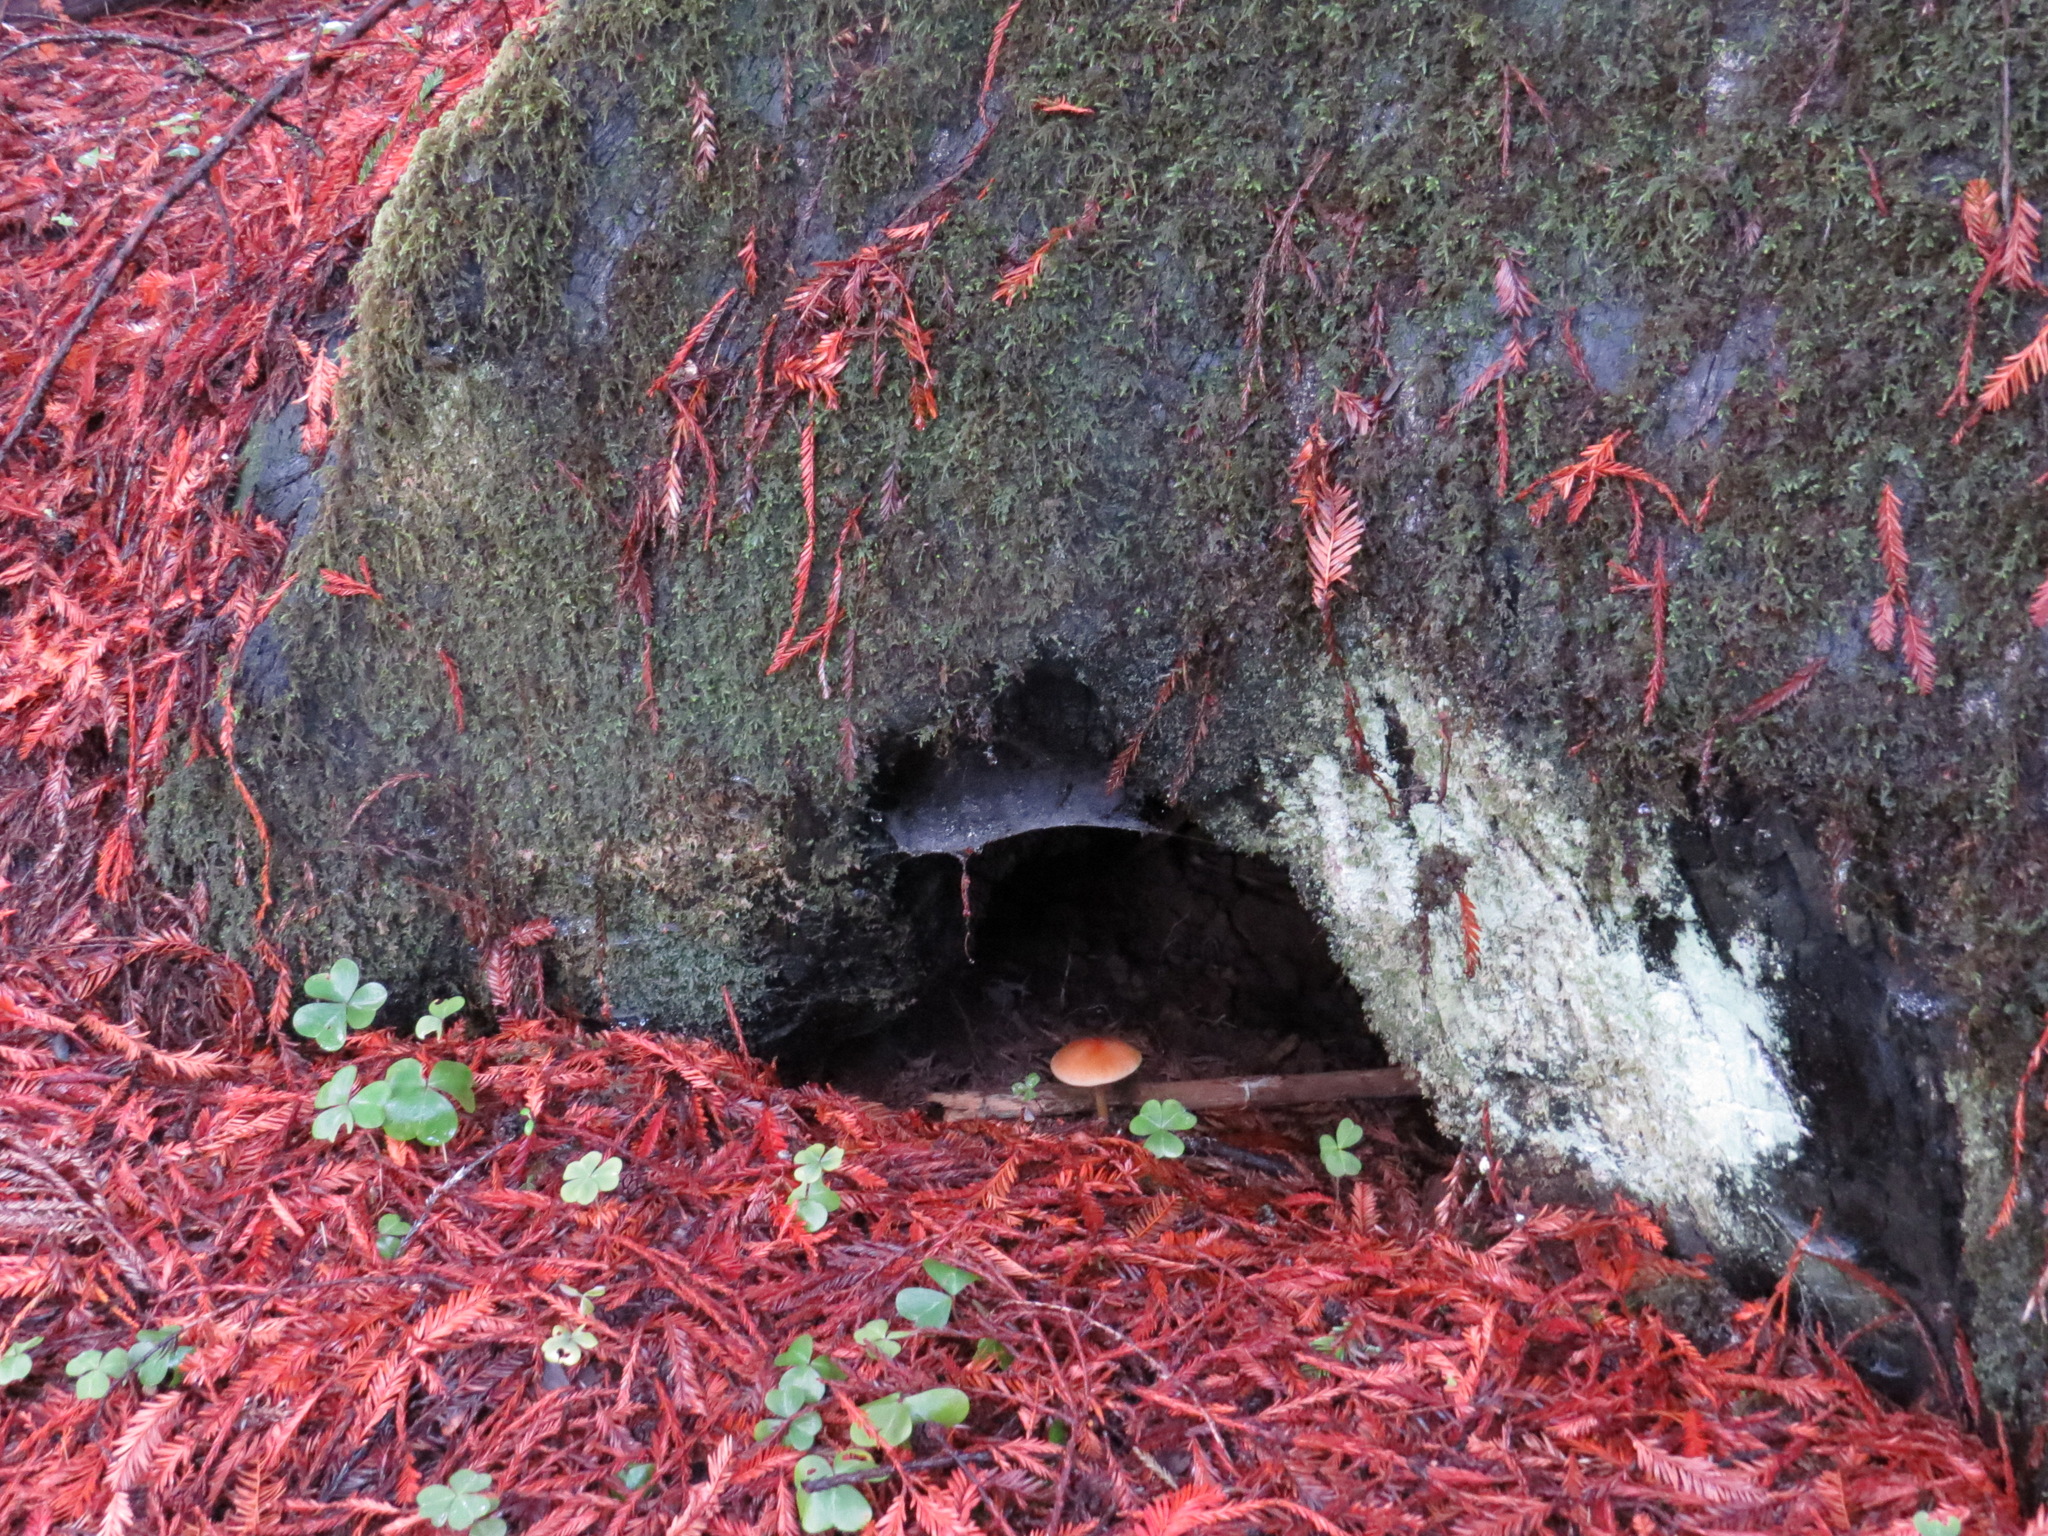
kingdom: Fungi
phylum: Basidiomycota
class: Agaricomycetes
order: Agaricales
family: Tricholomataceae
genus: Caulorhiza
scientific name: Caulorhiza umbonata
